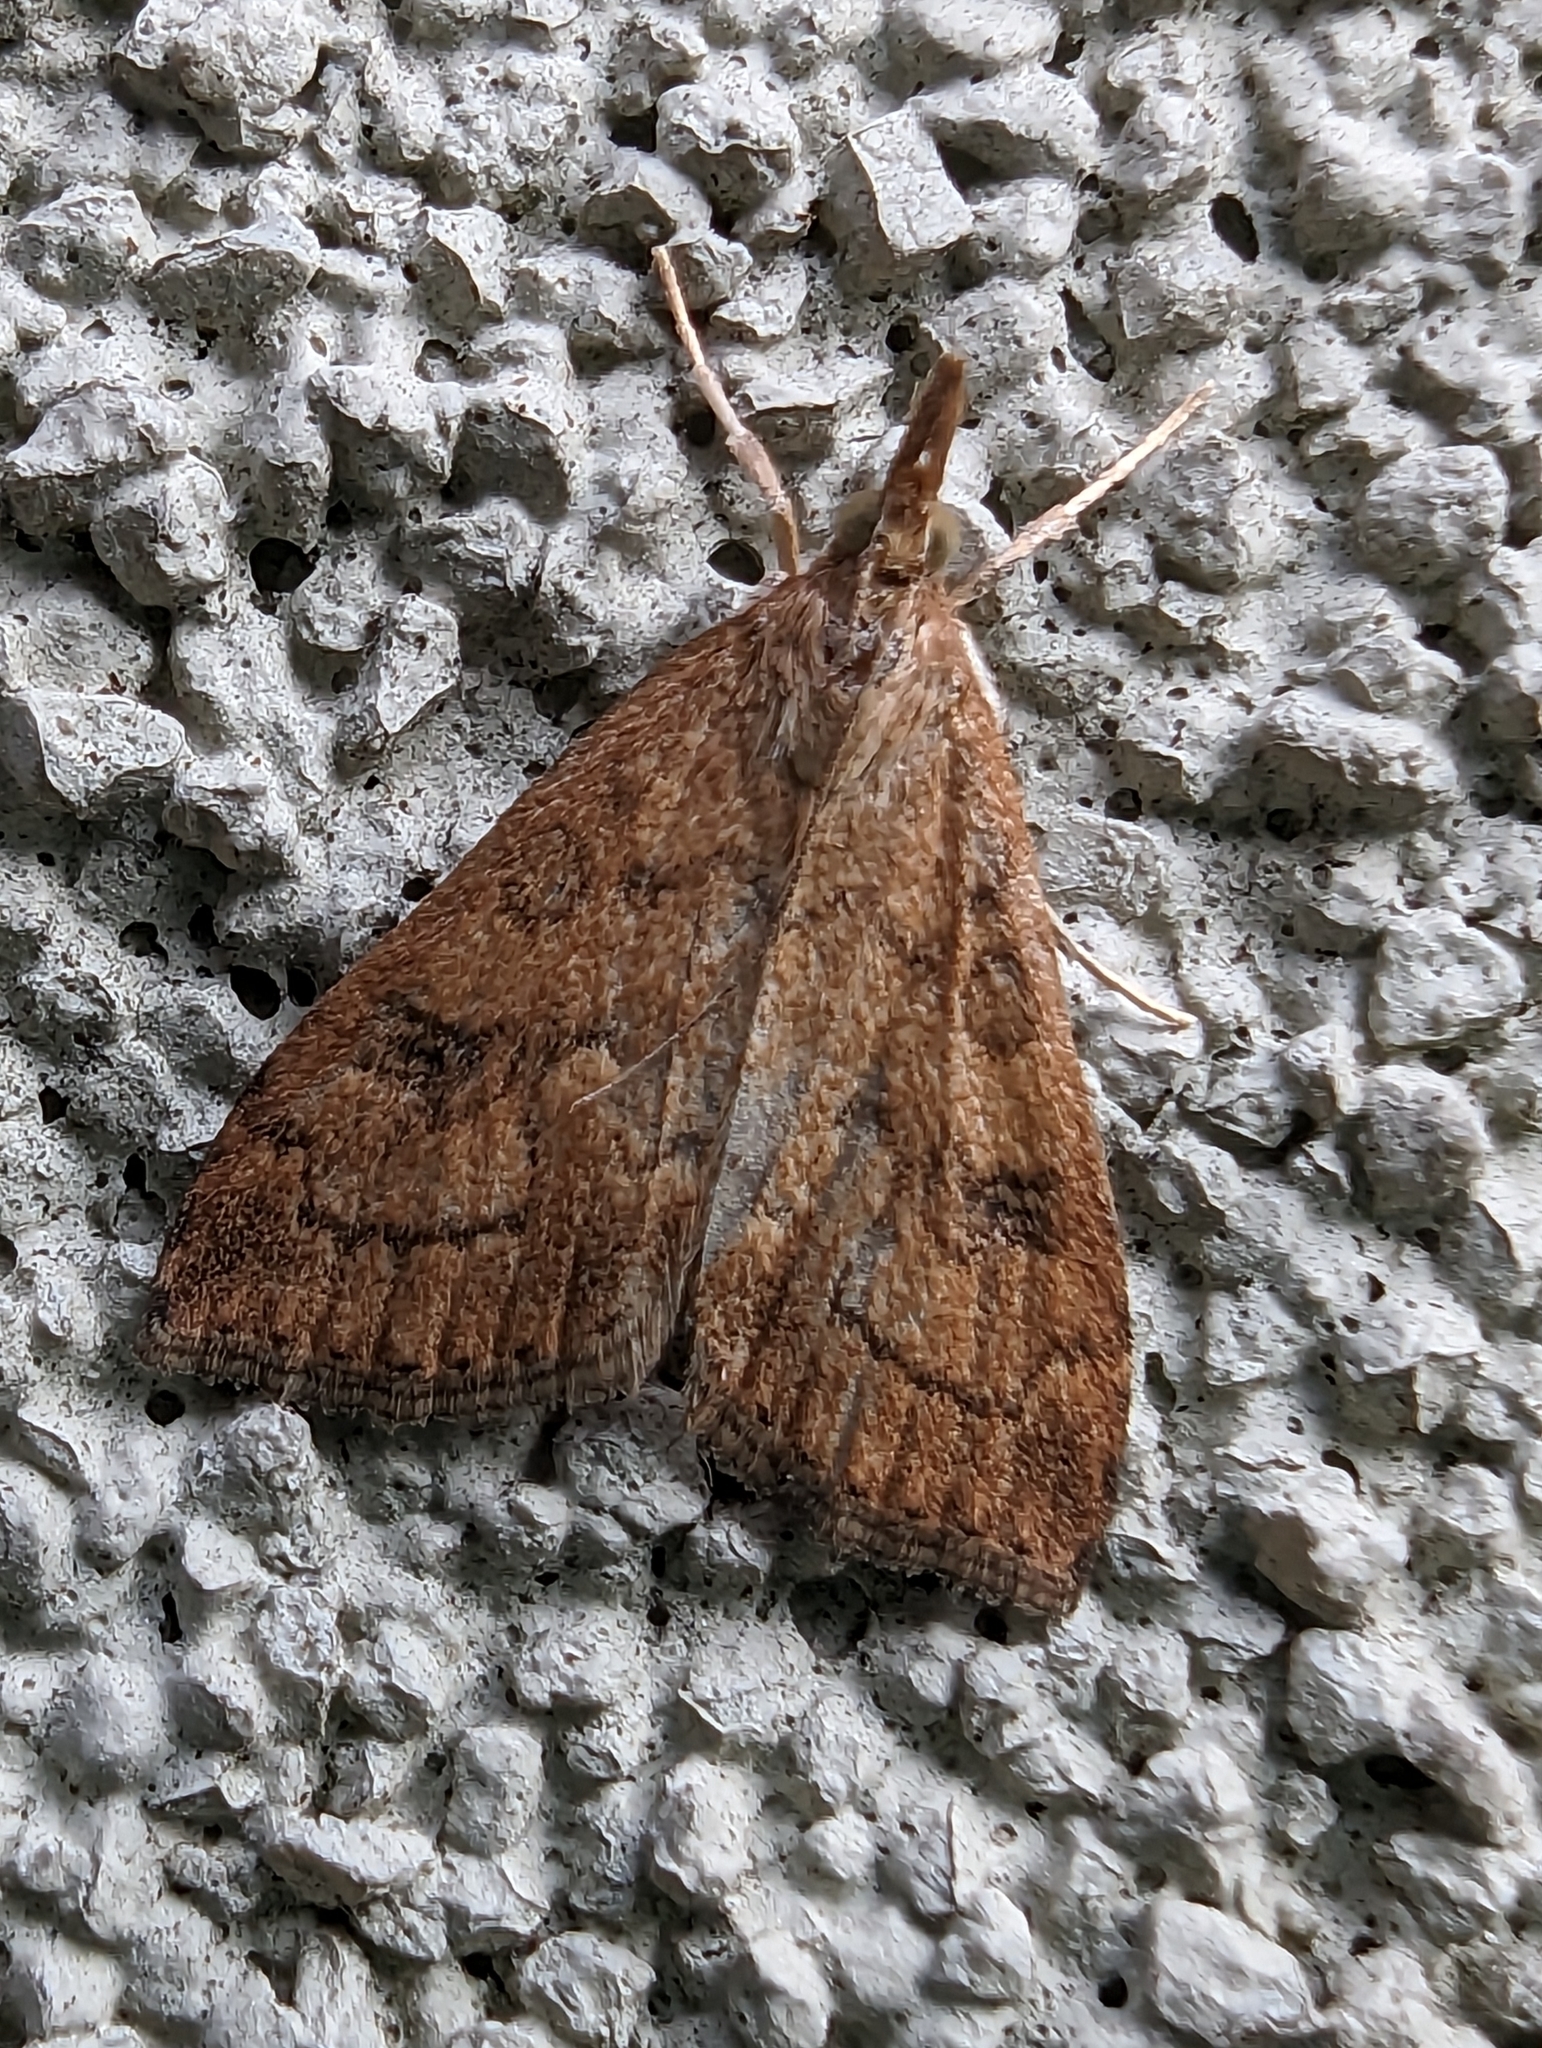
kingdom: Animalia
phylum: Arthropoda
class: Insecta
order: Lepidoptera
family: Crambidae
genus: Udea
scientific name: Udea profundalis
